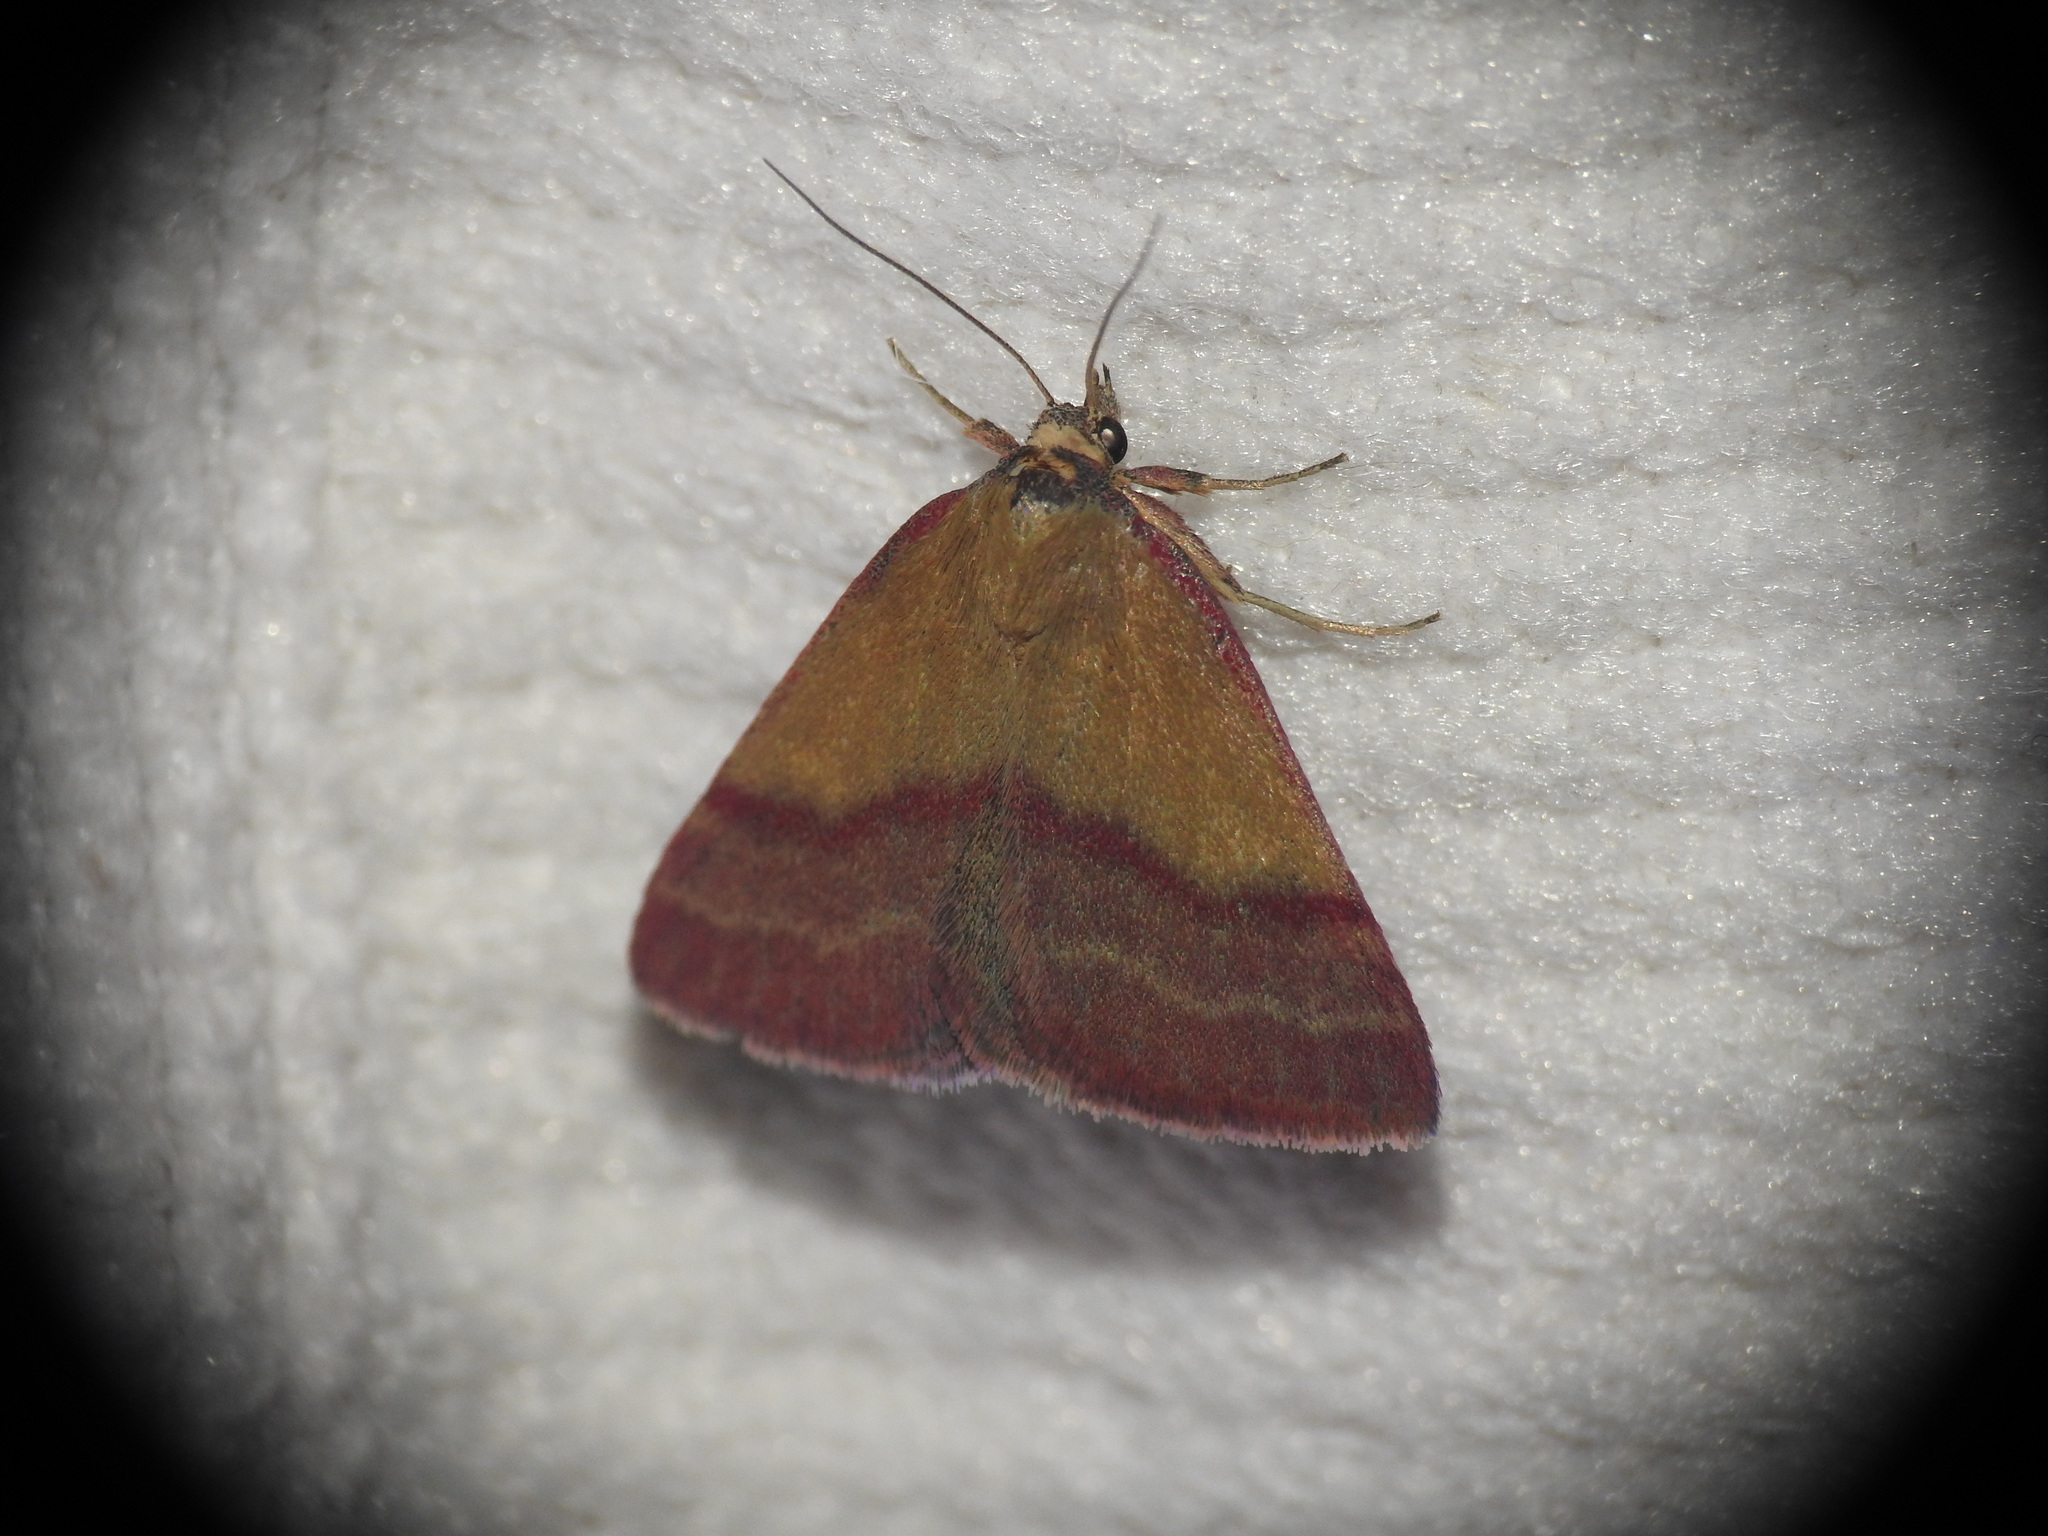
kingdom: Animalia
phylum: Arthropoda
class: Insecta
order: Lepidoptera
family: Erebidae
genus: Phytometra
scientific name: Phytometra viridaria
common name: Small purple-barred
